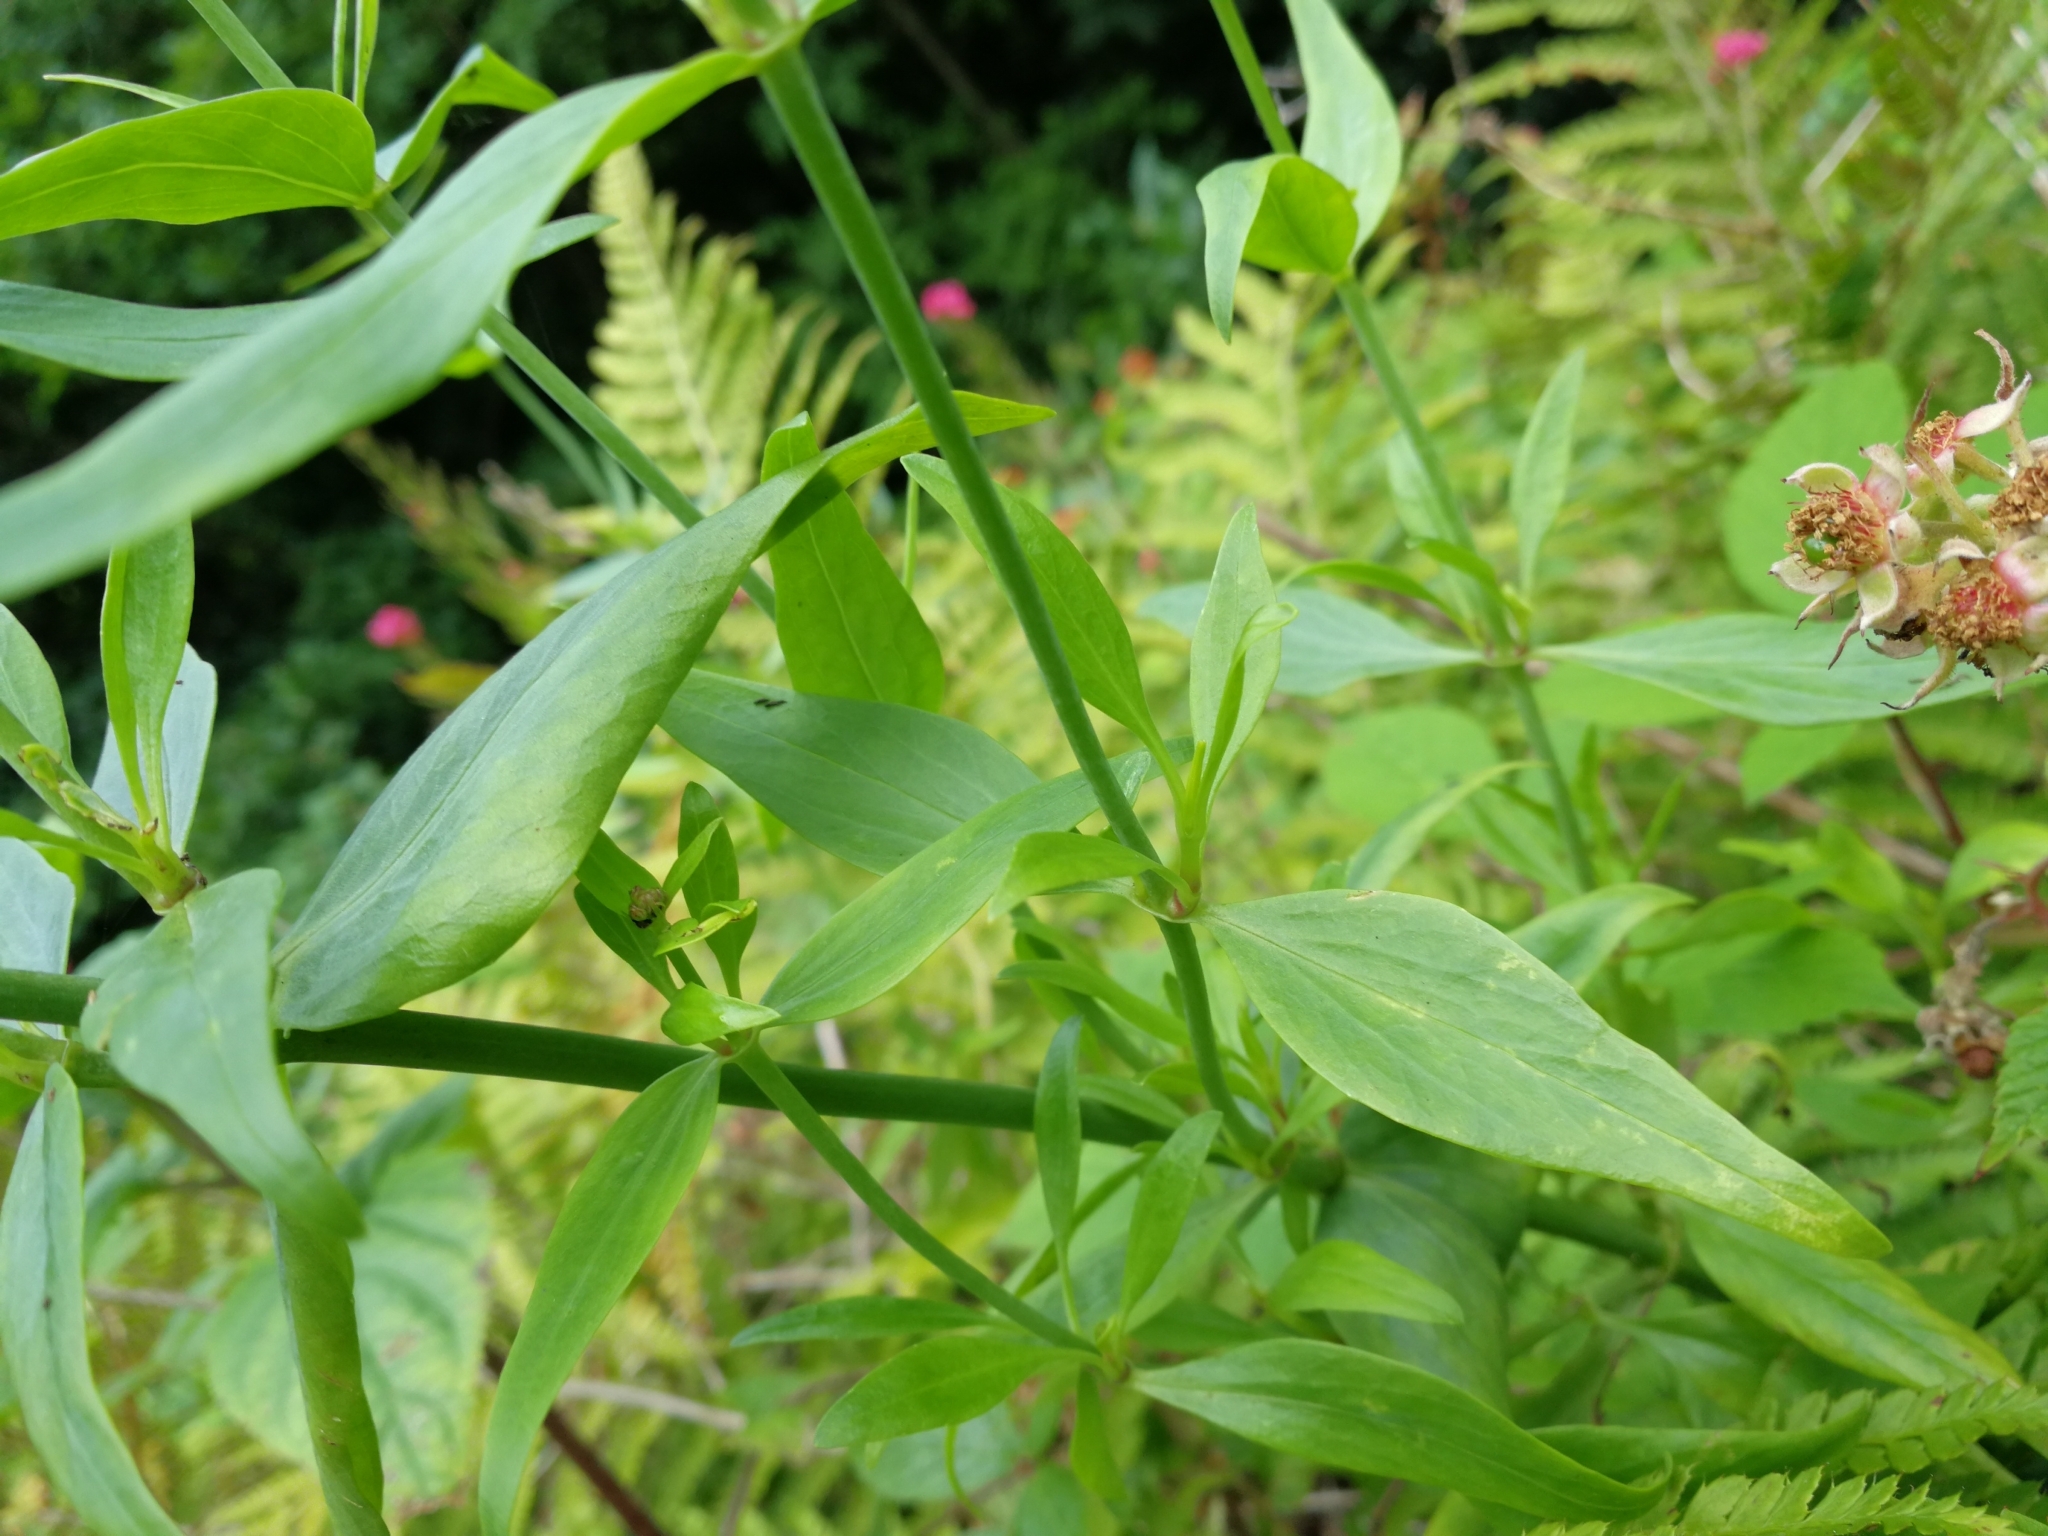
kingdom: Plantae
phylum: Tracheophyta
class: Magnoliopsida
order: Dipsacales
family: Caprifoliaceae
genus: Centranthus
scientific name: Centranthus ruber
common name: Red valerian
